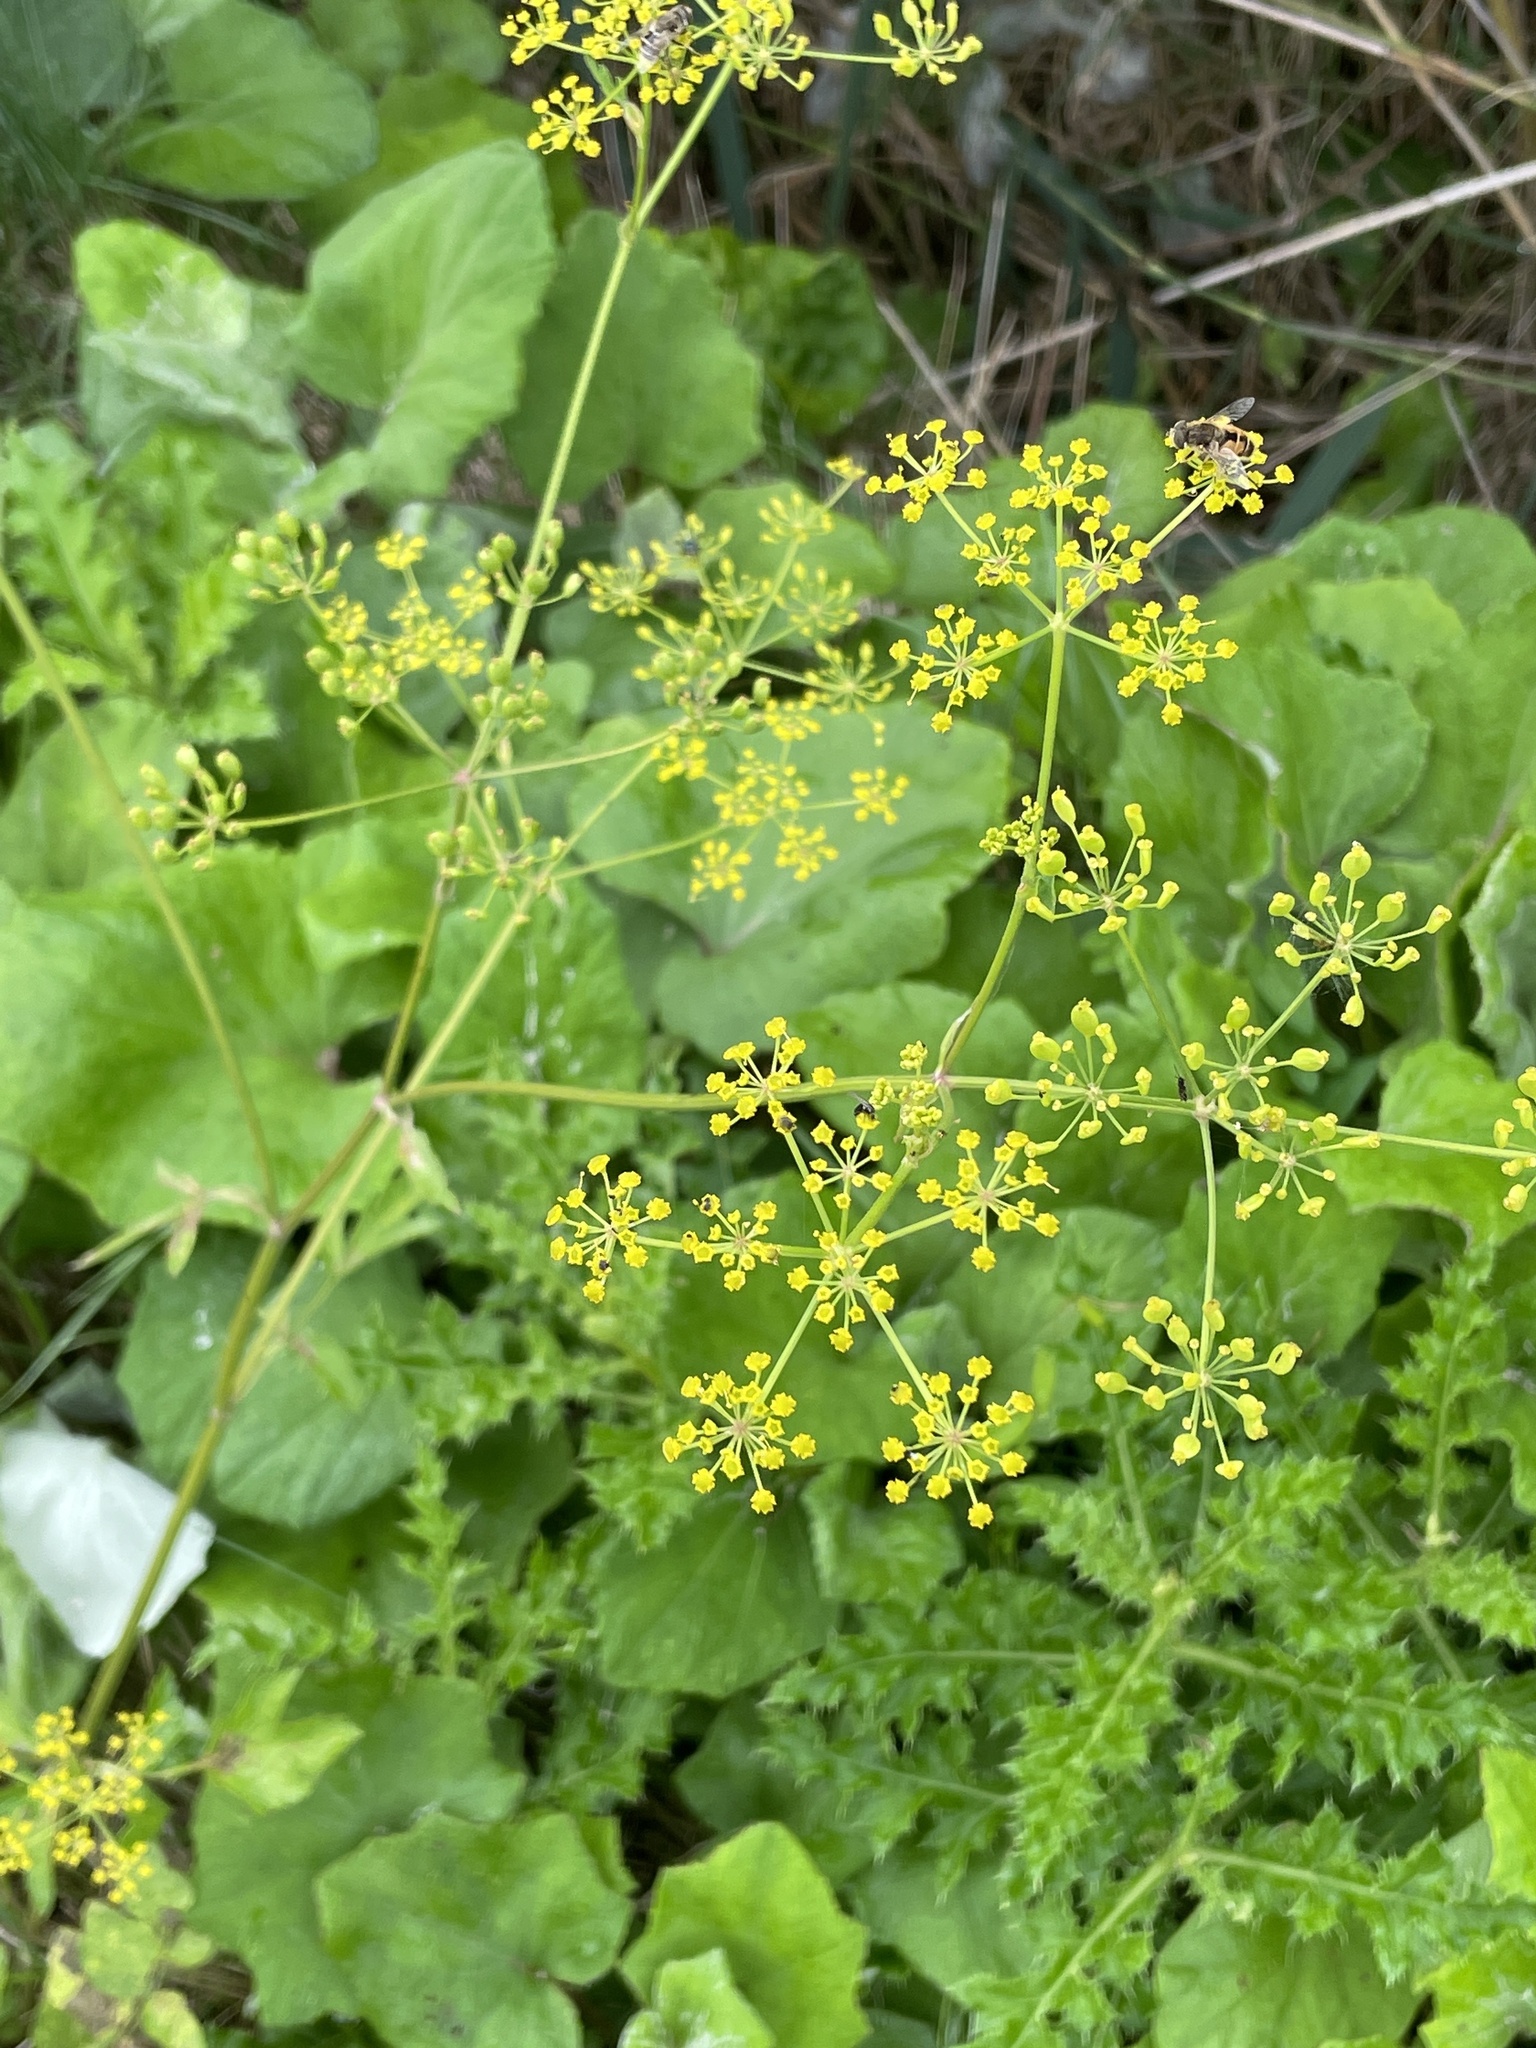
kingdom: Plantae
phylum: Tracheophyta
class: Magnoliopsida
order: Apiales
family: Apiaceae
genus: Pastinaca
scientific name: Pastinaca sativa
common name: Wild parsnip
